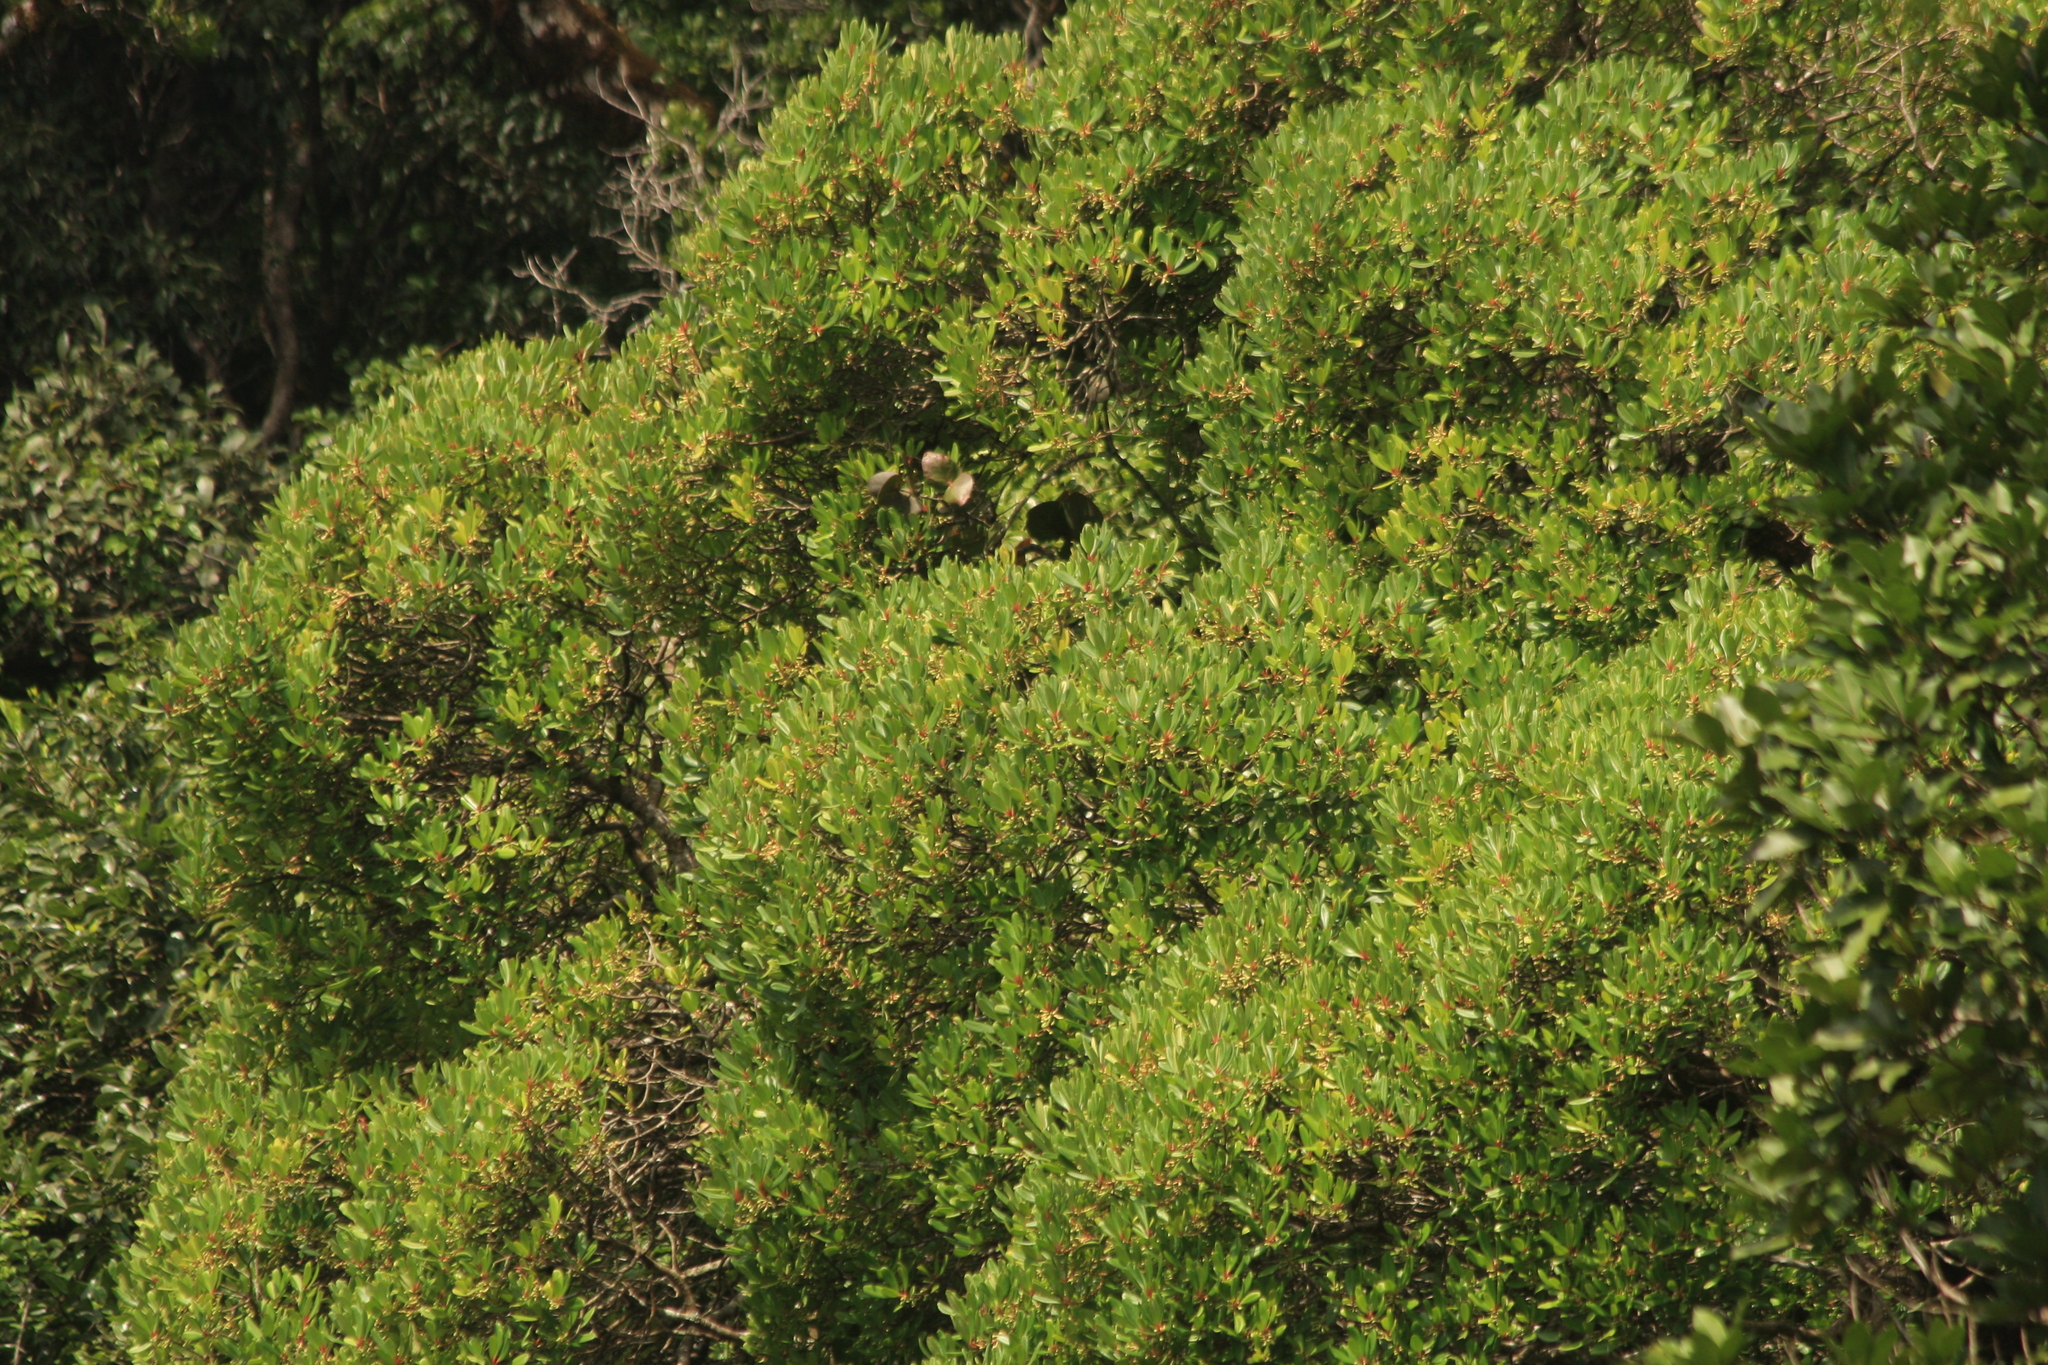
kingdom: Plantae
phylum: Tracheophyta
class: Magnoliopsida
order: Ericales
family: Primulaceae
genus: Myrsine
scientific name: Myrsine wightiana
